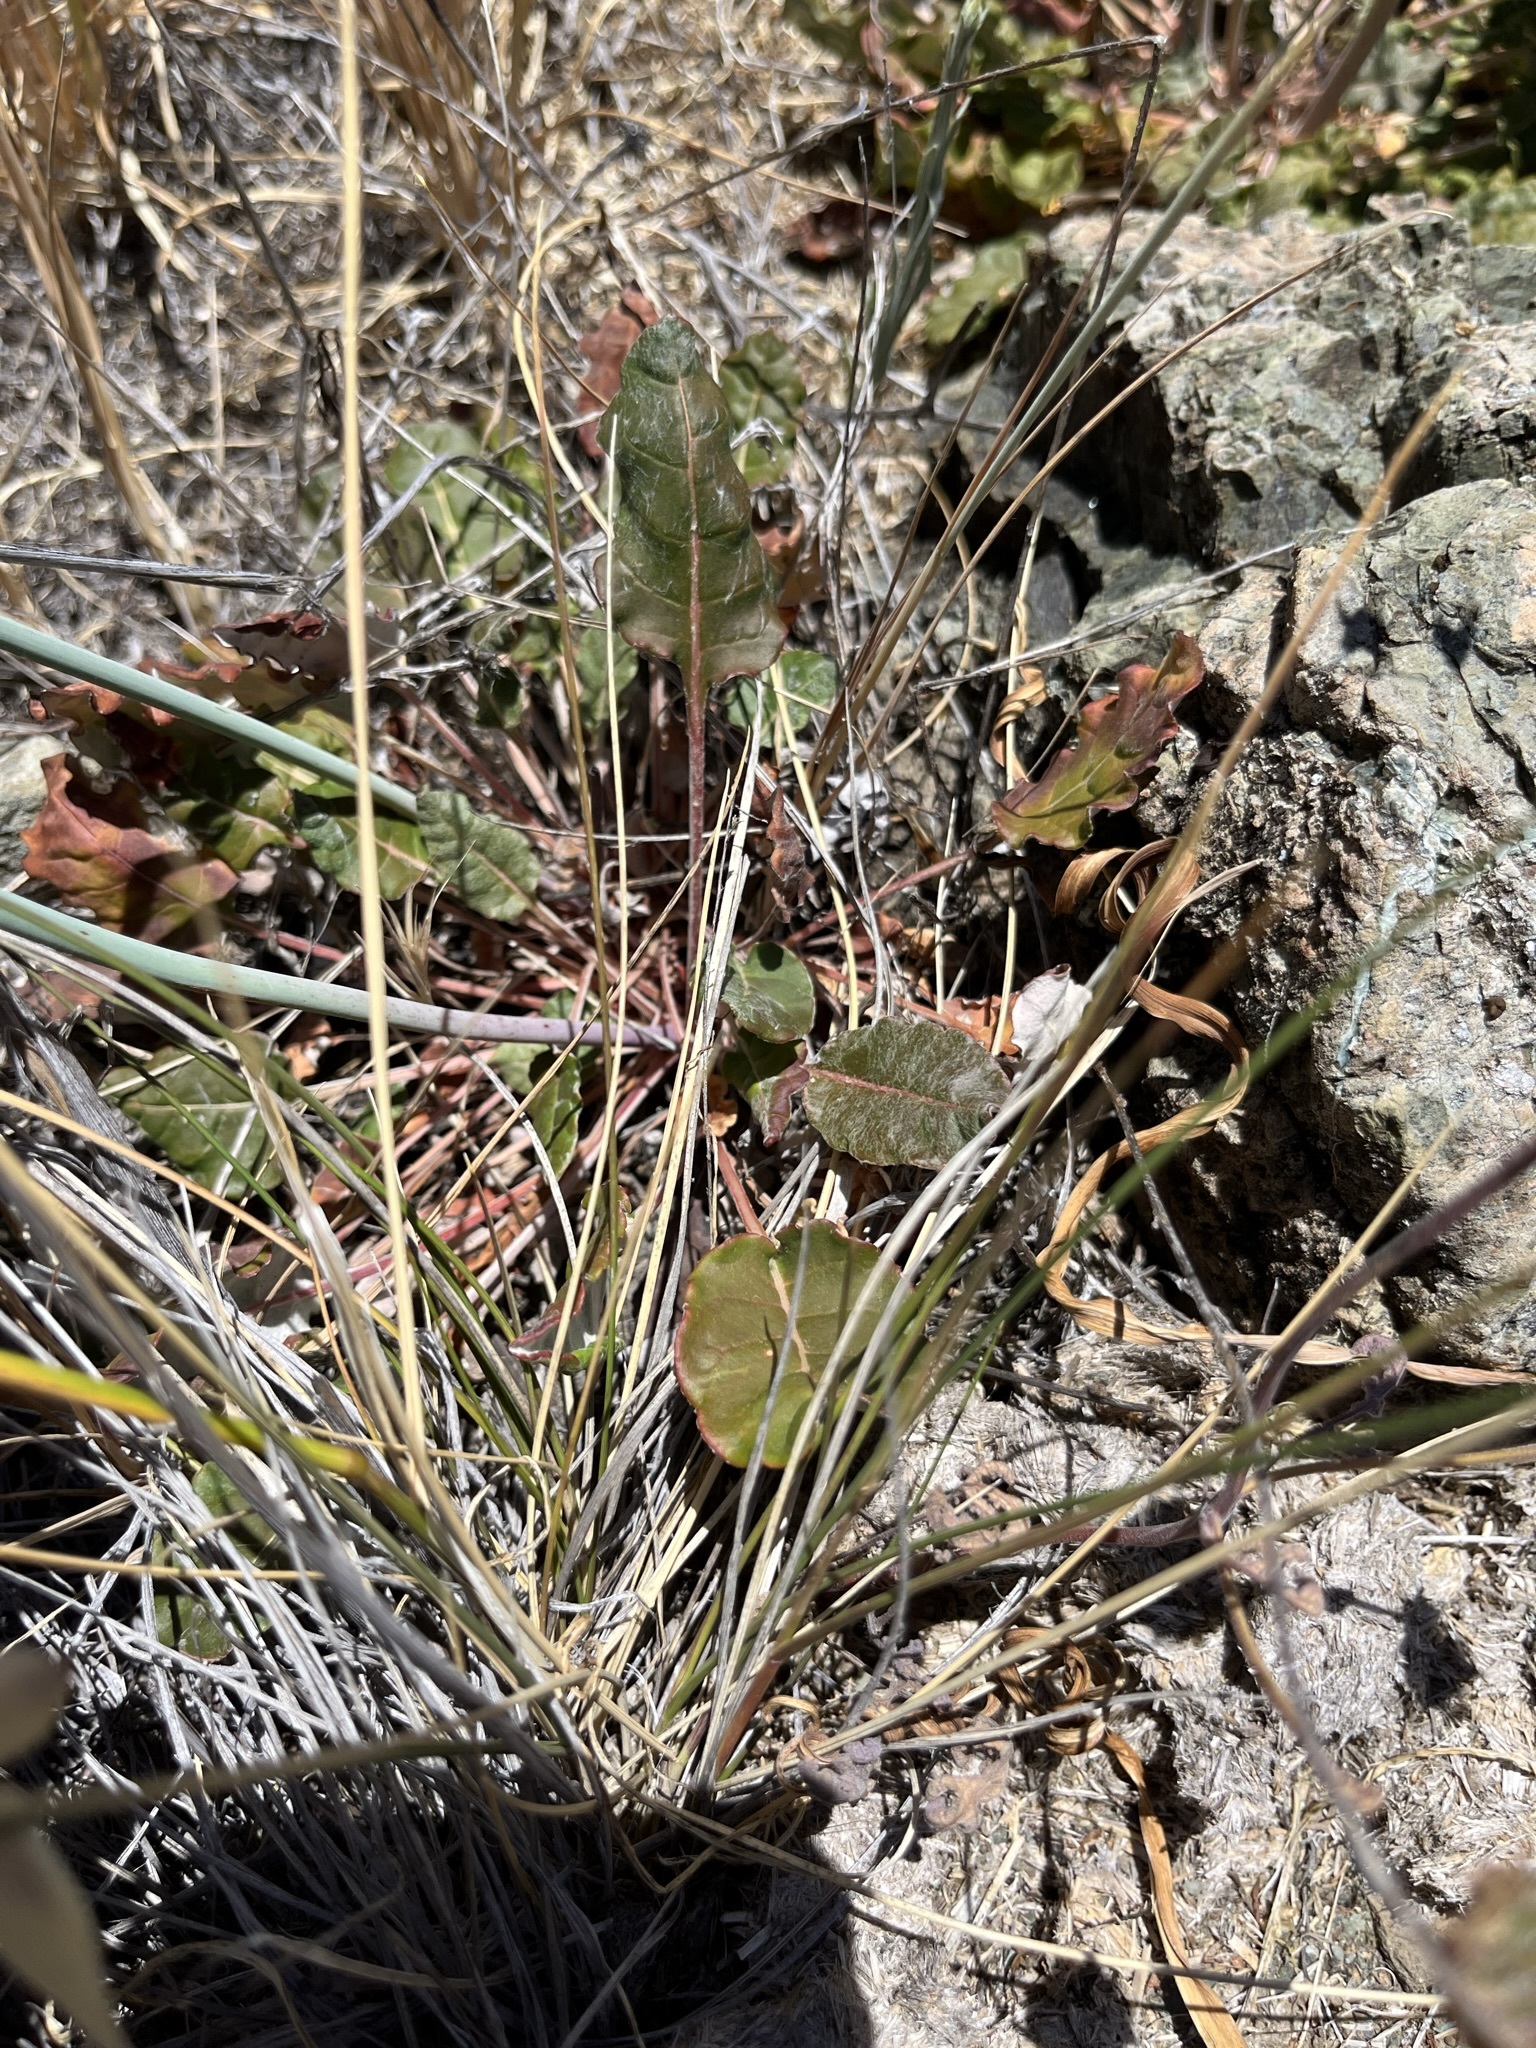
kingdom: Plantae
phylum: Tracheophyta
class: Magnoliopsida
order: Caryophyllales
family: Polygonaceae
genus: Eriogonum
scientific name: Eriogonum nudum
